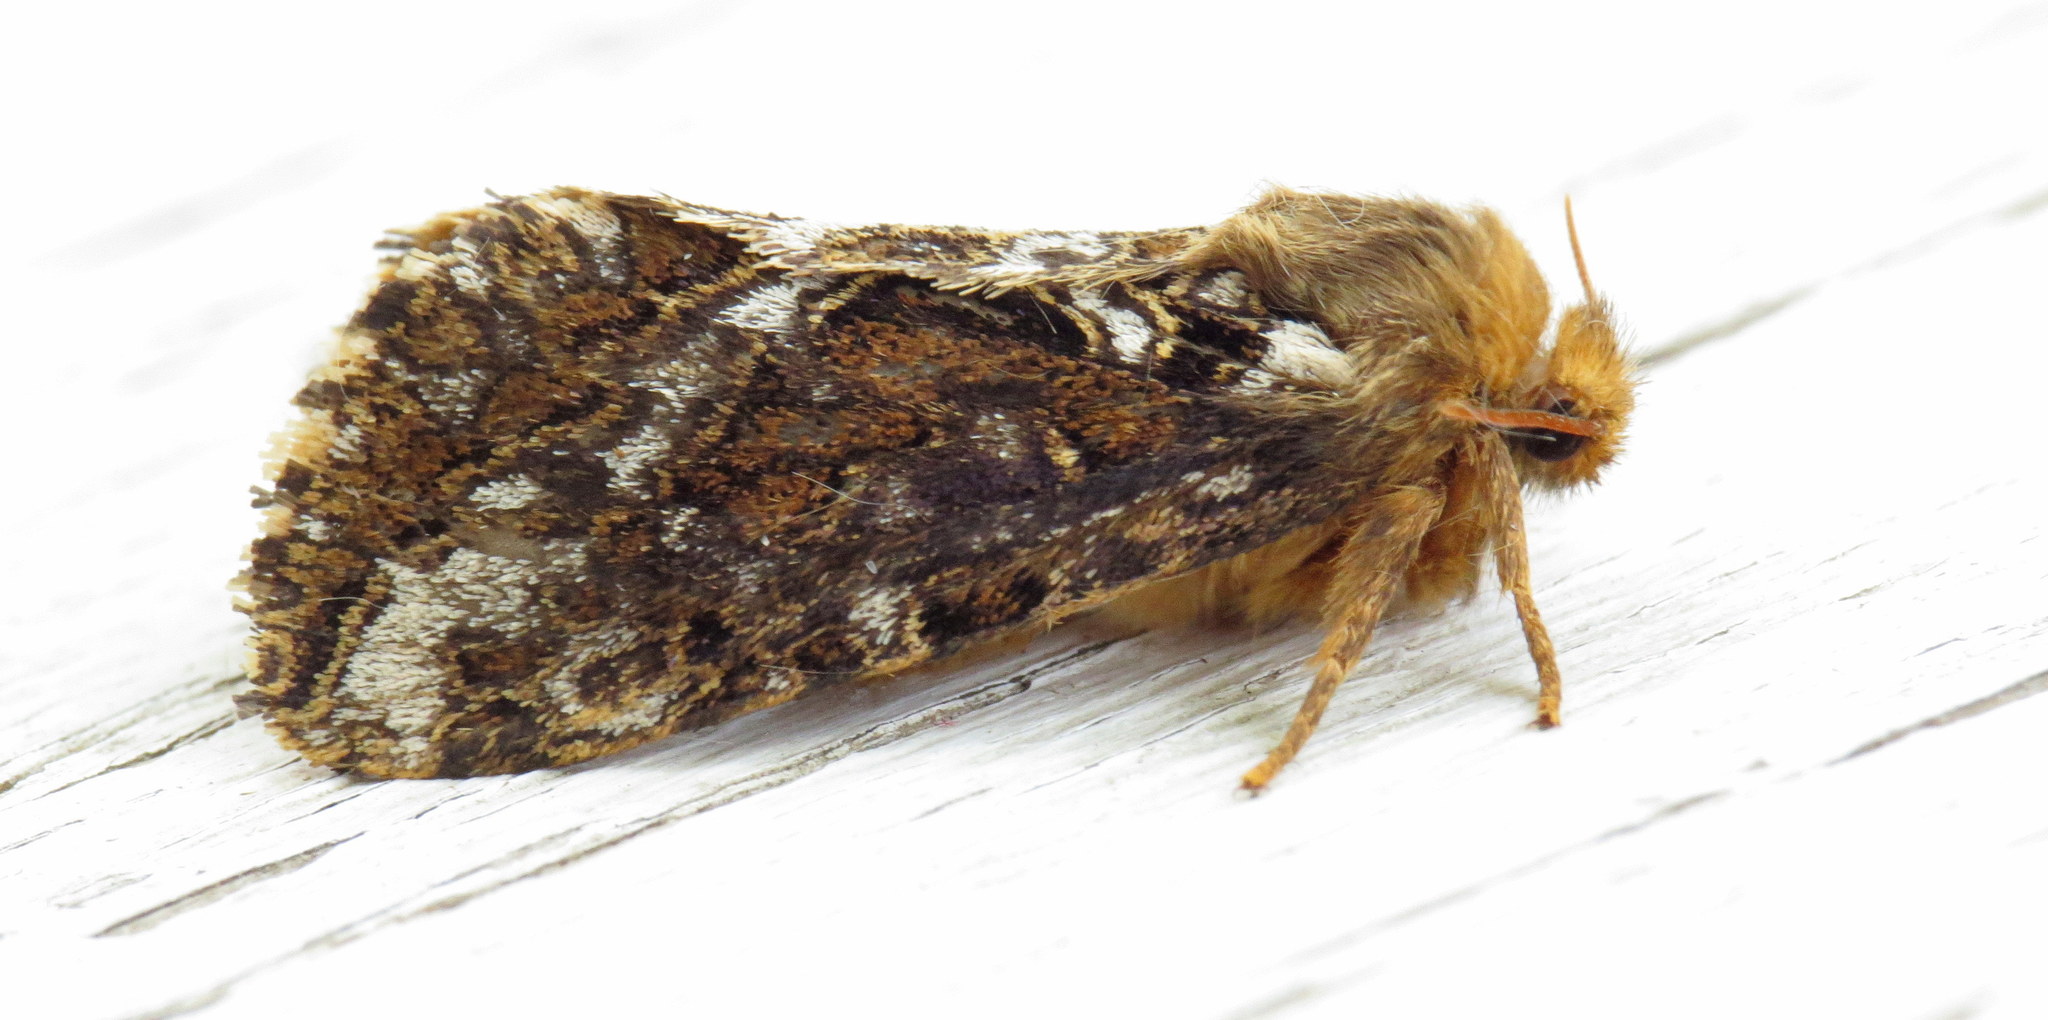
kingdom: Animalia
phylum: Arthropoda
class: Insecta
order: Lepidoptera
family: Hepialidae
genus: Korscheltellus
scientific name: Korscheltellus gracilis
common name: Conifer swift moth
